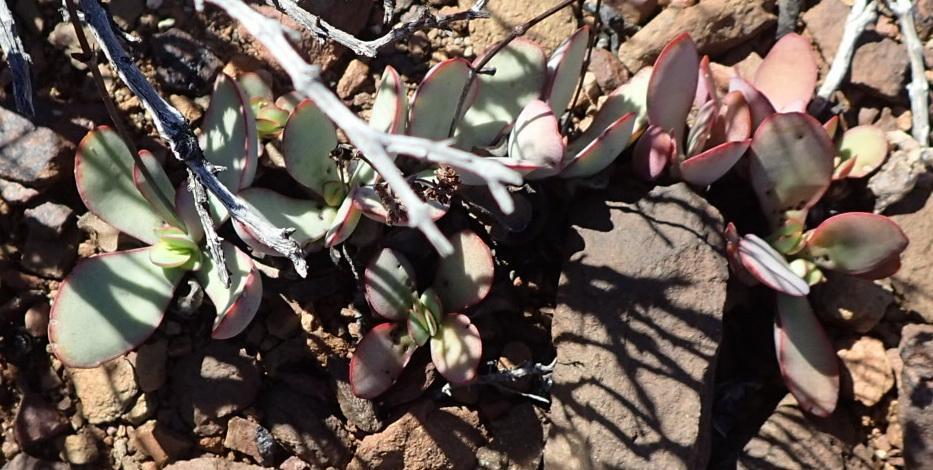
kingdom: Plantae
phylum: Tracheophyta
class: Magnoliopsida
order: Saxifragales
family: Crassulaceae
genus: Crassula
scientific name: Crassula nudicaulis
